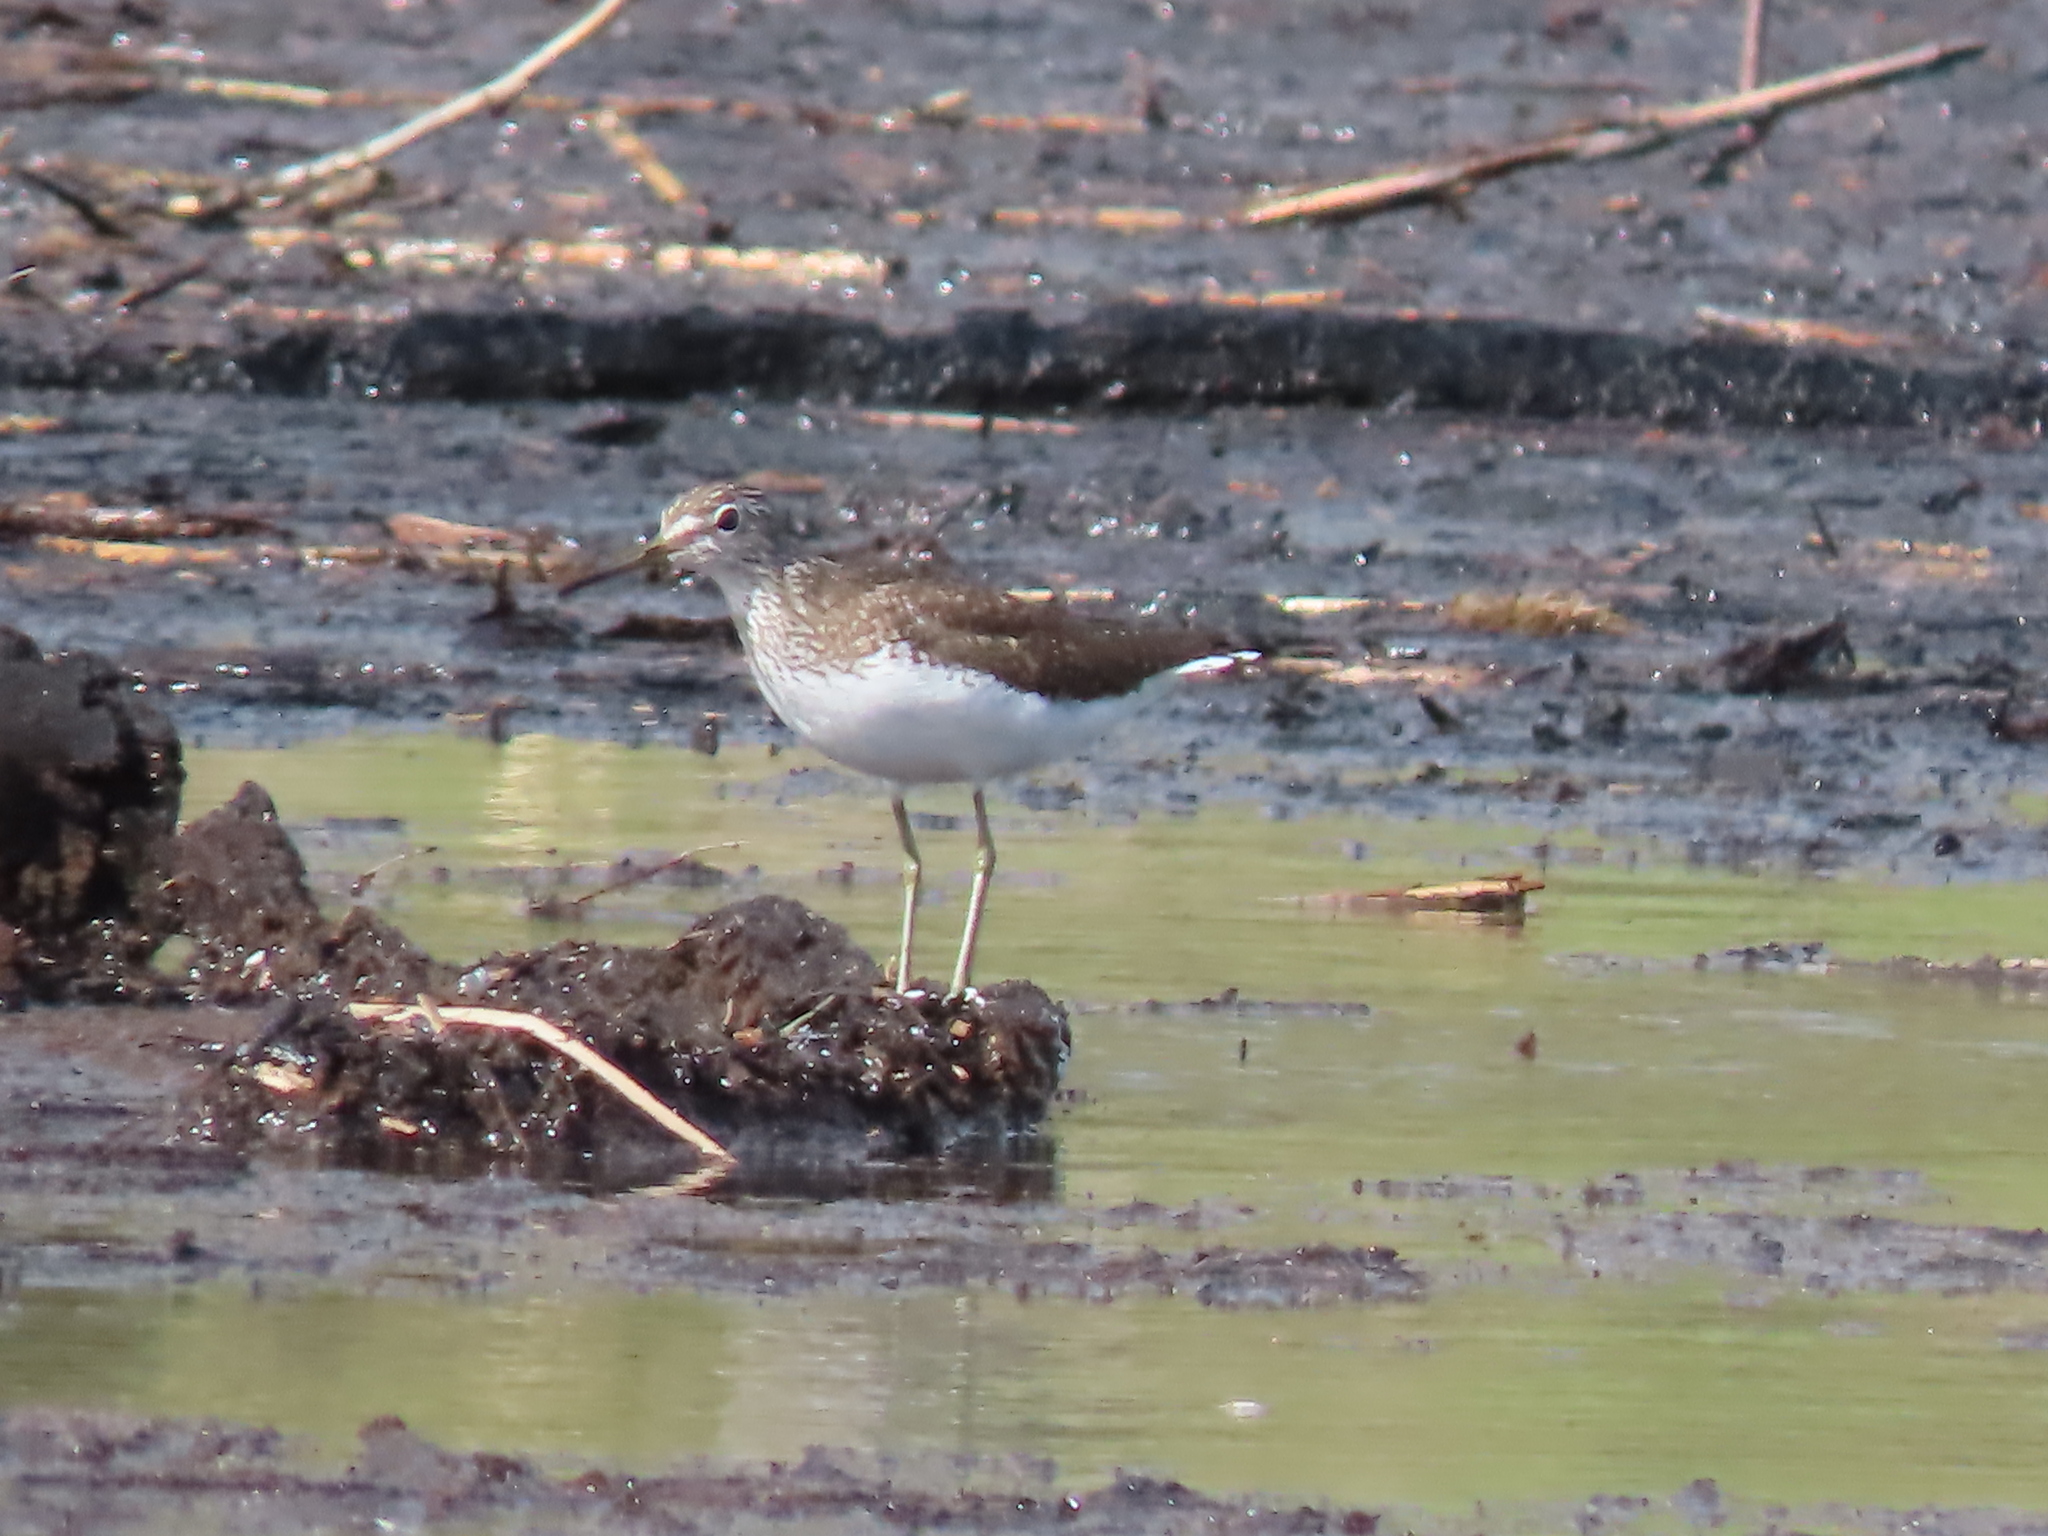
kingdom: Animalia
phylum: Chordata
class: Aves
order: Charadriiformes
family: Scolopacidae
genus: Tringa
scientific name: Tringa ochropus
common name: Green sandpiper
